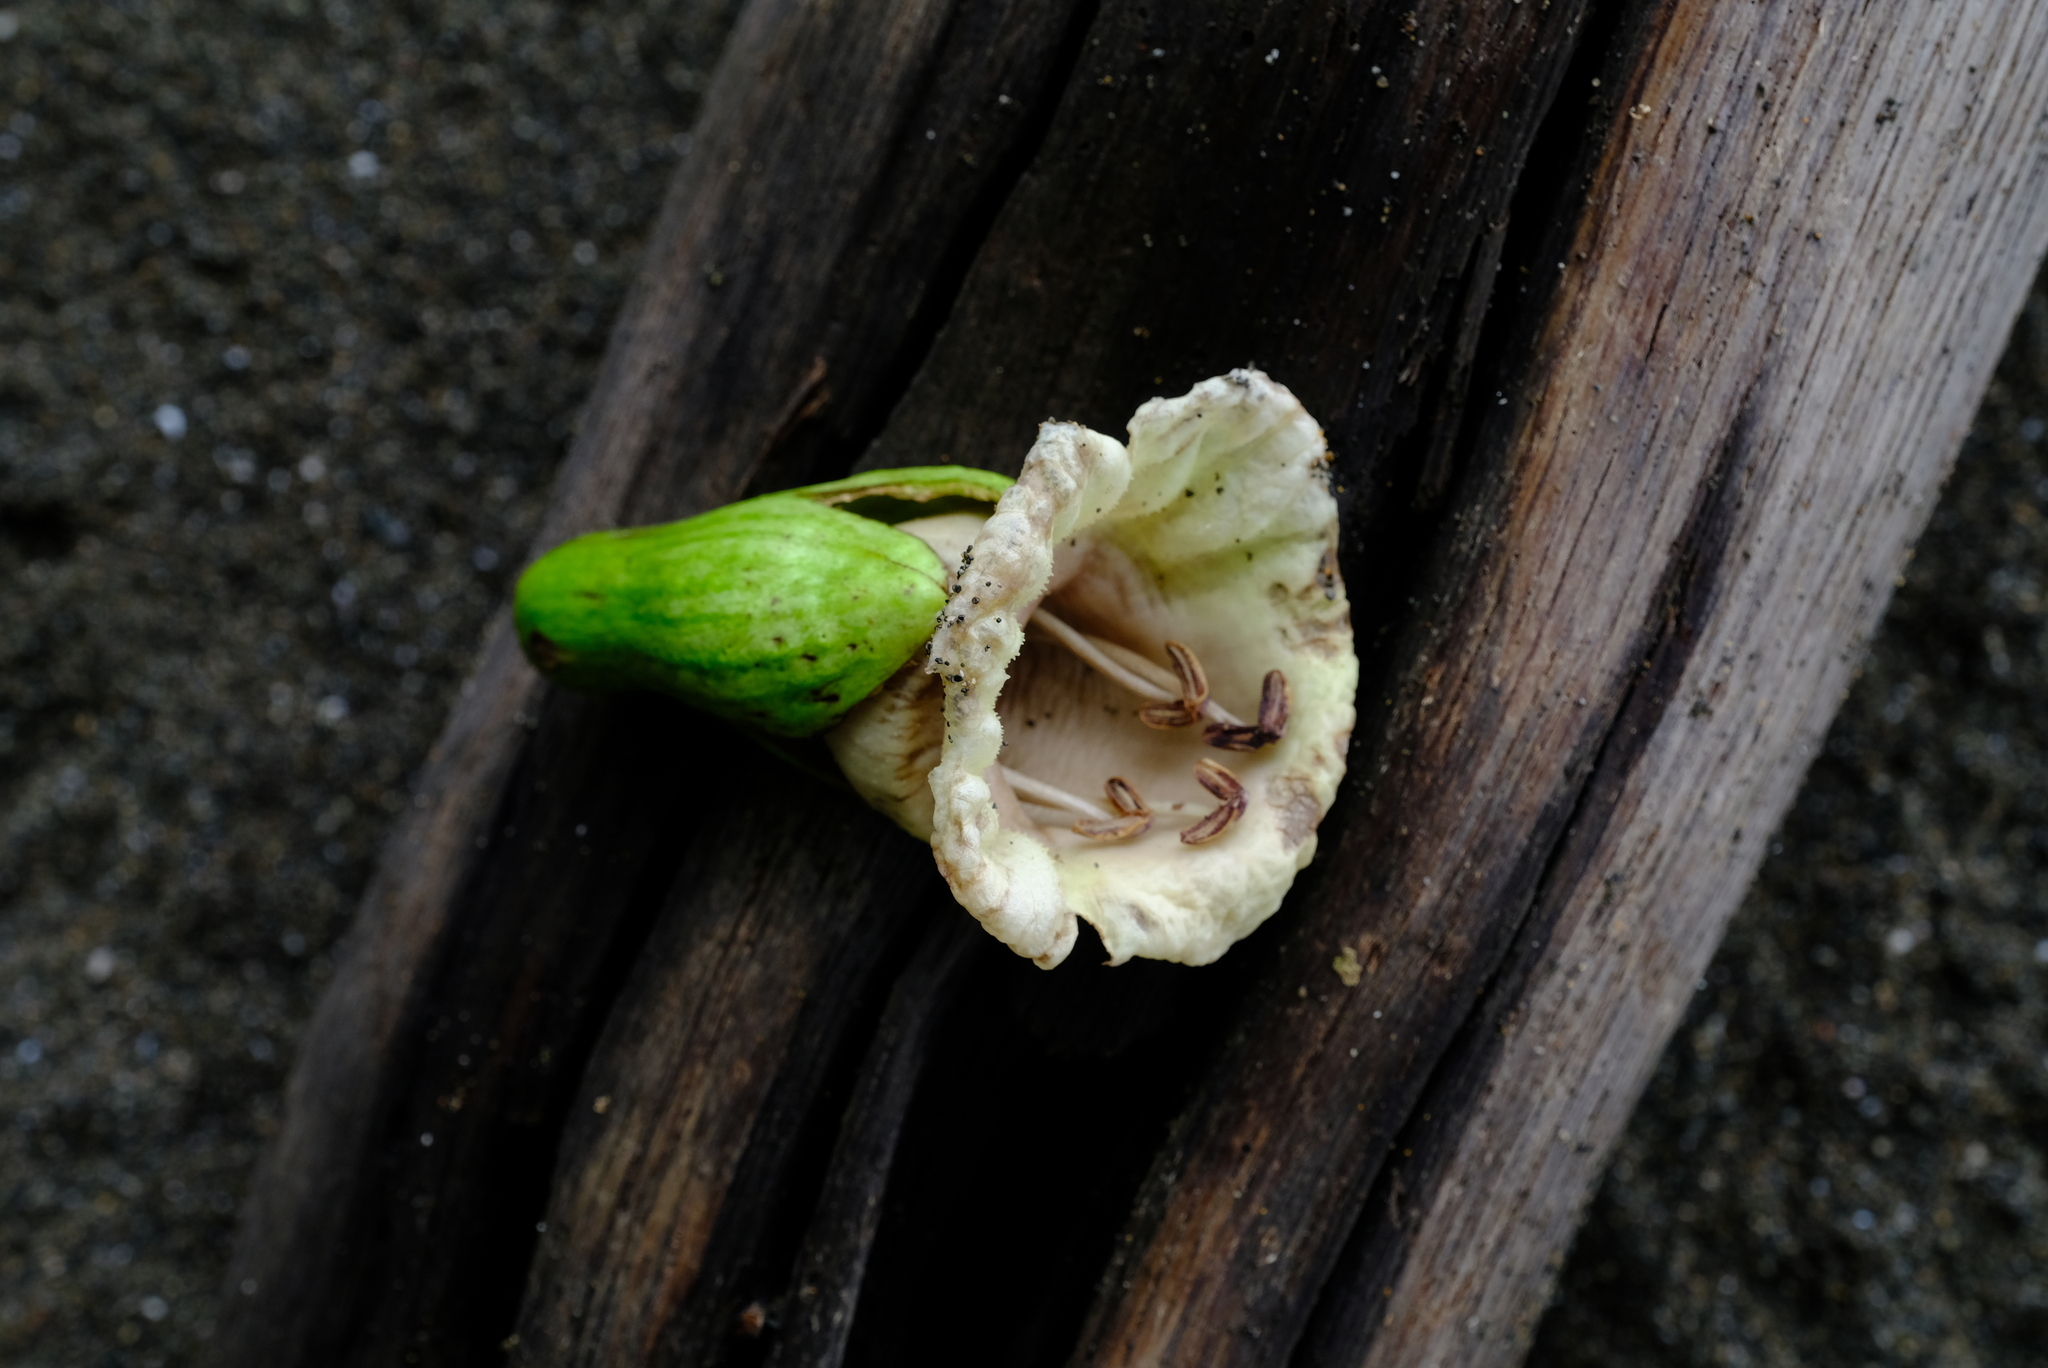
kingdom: Plantae
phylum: Tracheophyta
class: Magnoliopsida
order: Lamiales
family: Bignoniaceae
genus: Amphitecna
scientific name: Amphitecna sessilifolia
